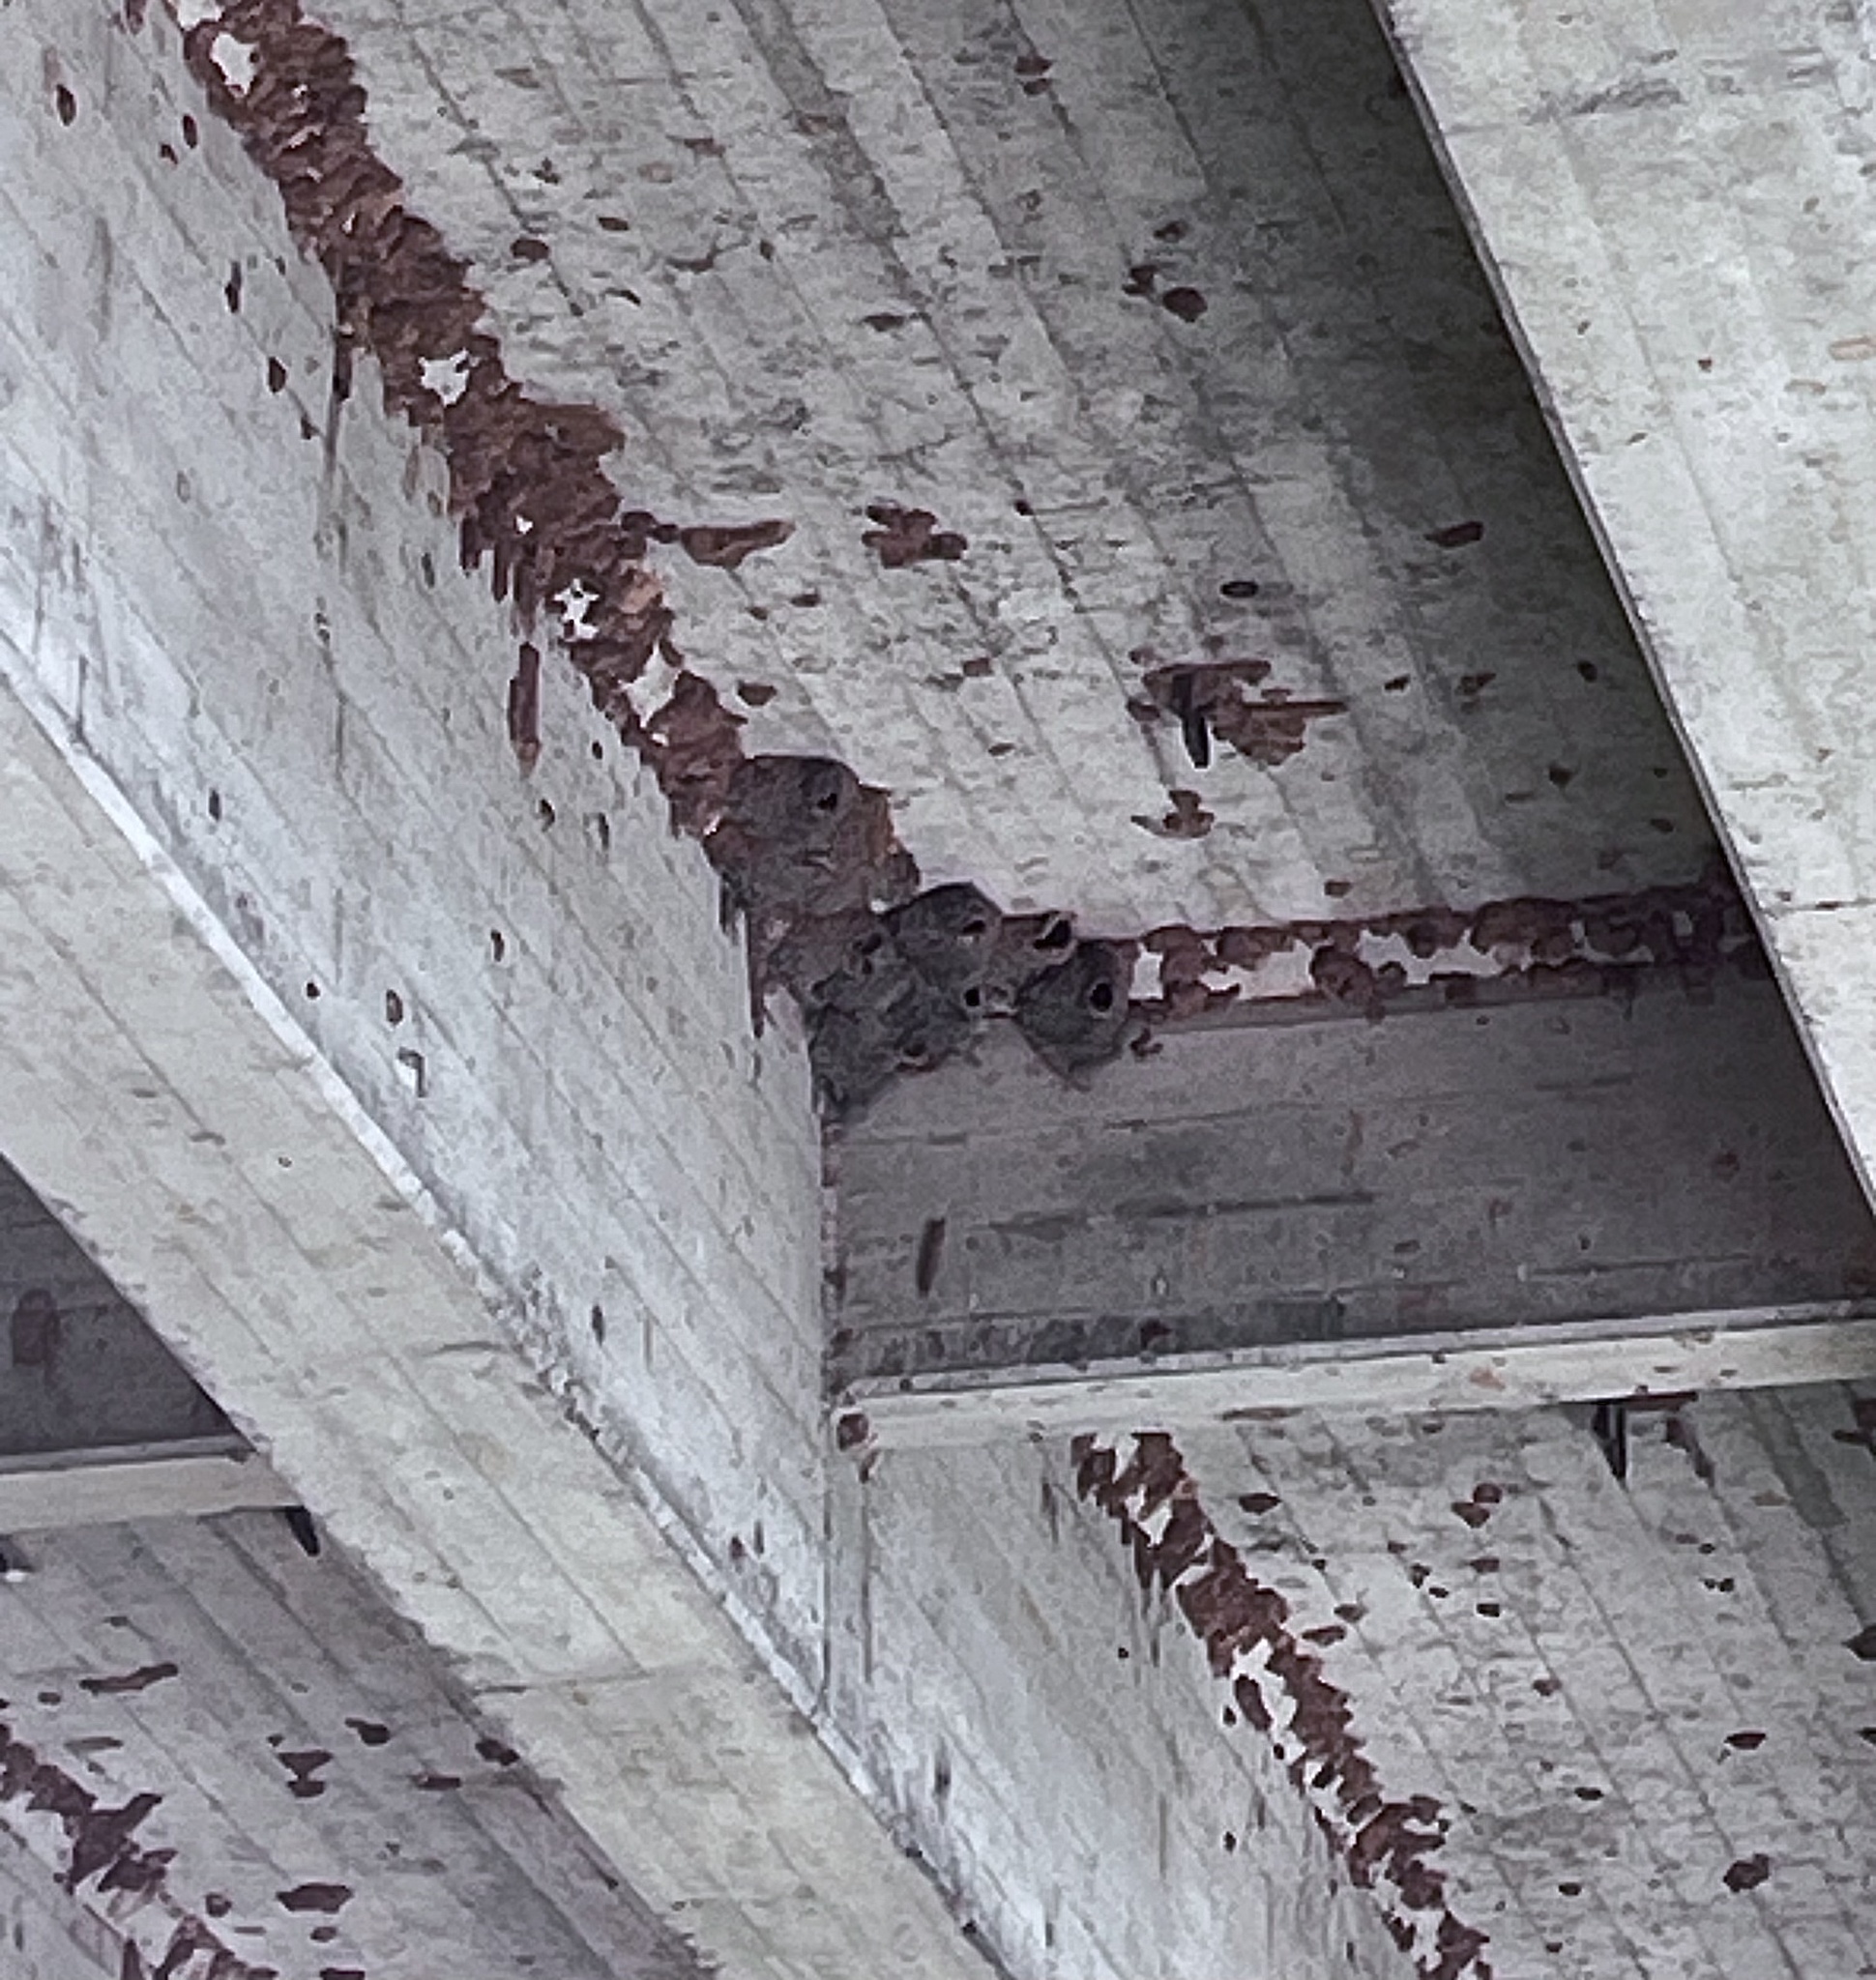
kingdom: Animalia
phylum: Chordata
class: Aves
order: Passeriformes
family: Hirundinidae
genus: Petrochelidon
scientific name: Petrochelidon pyrrhonota
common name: American cliff swallow
